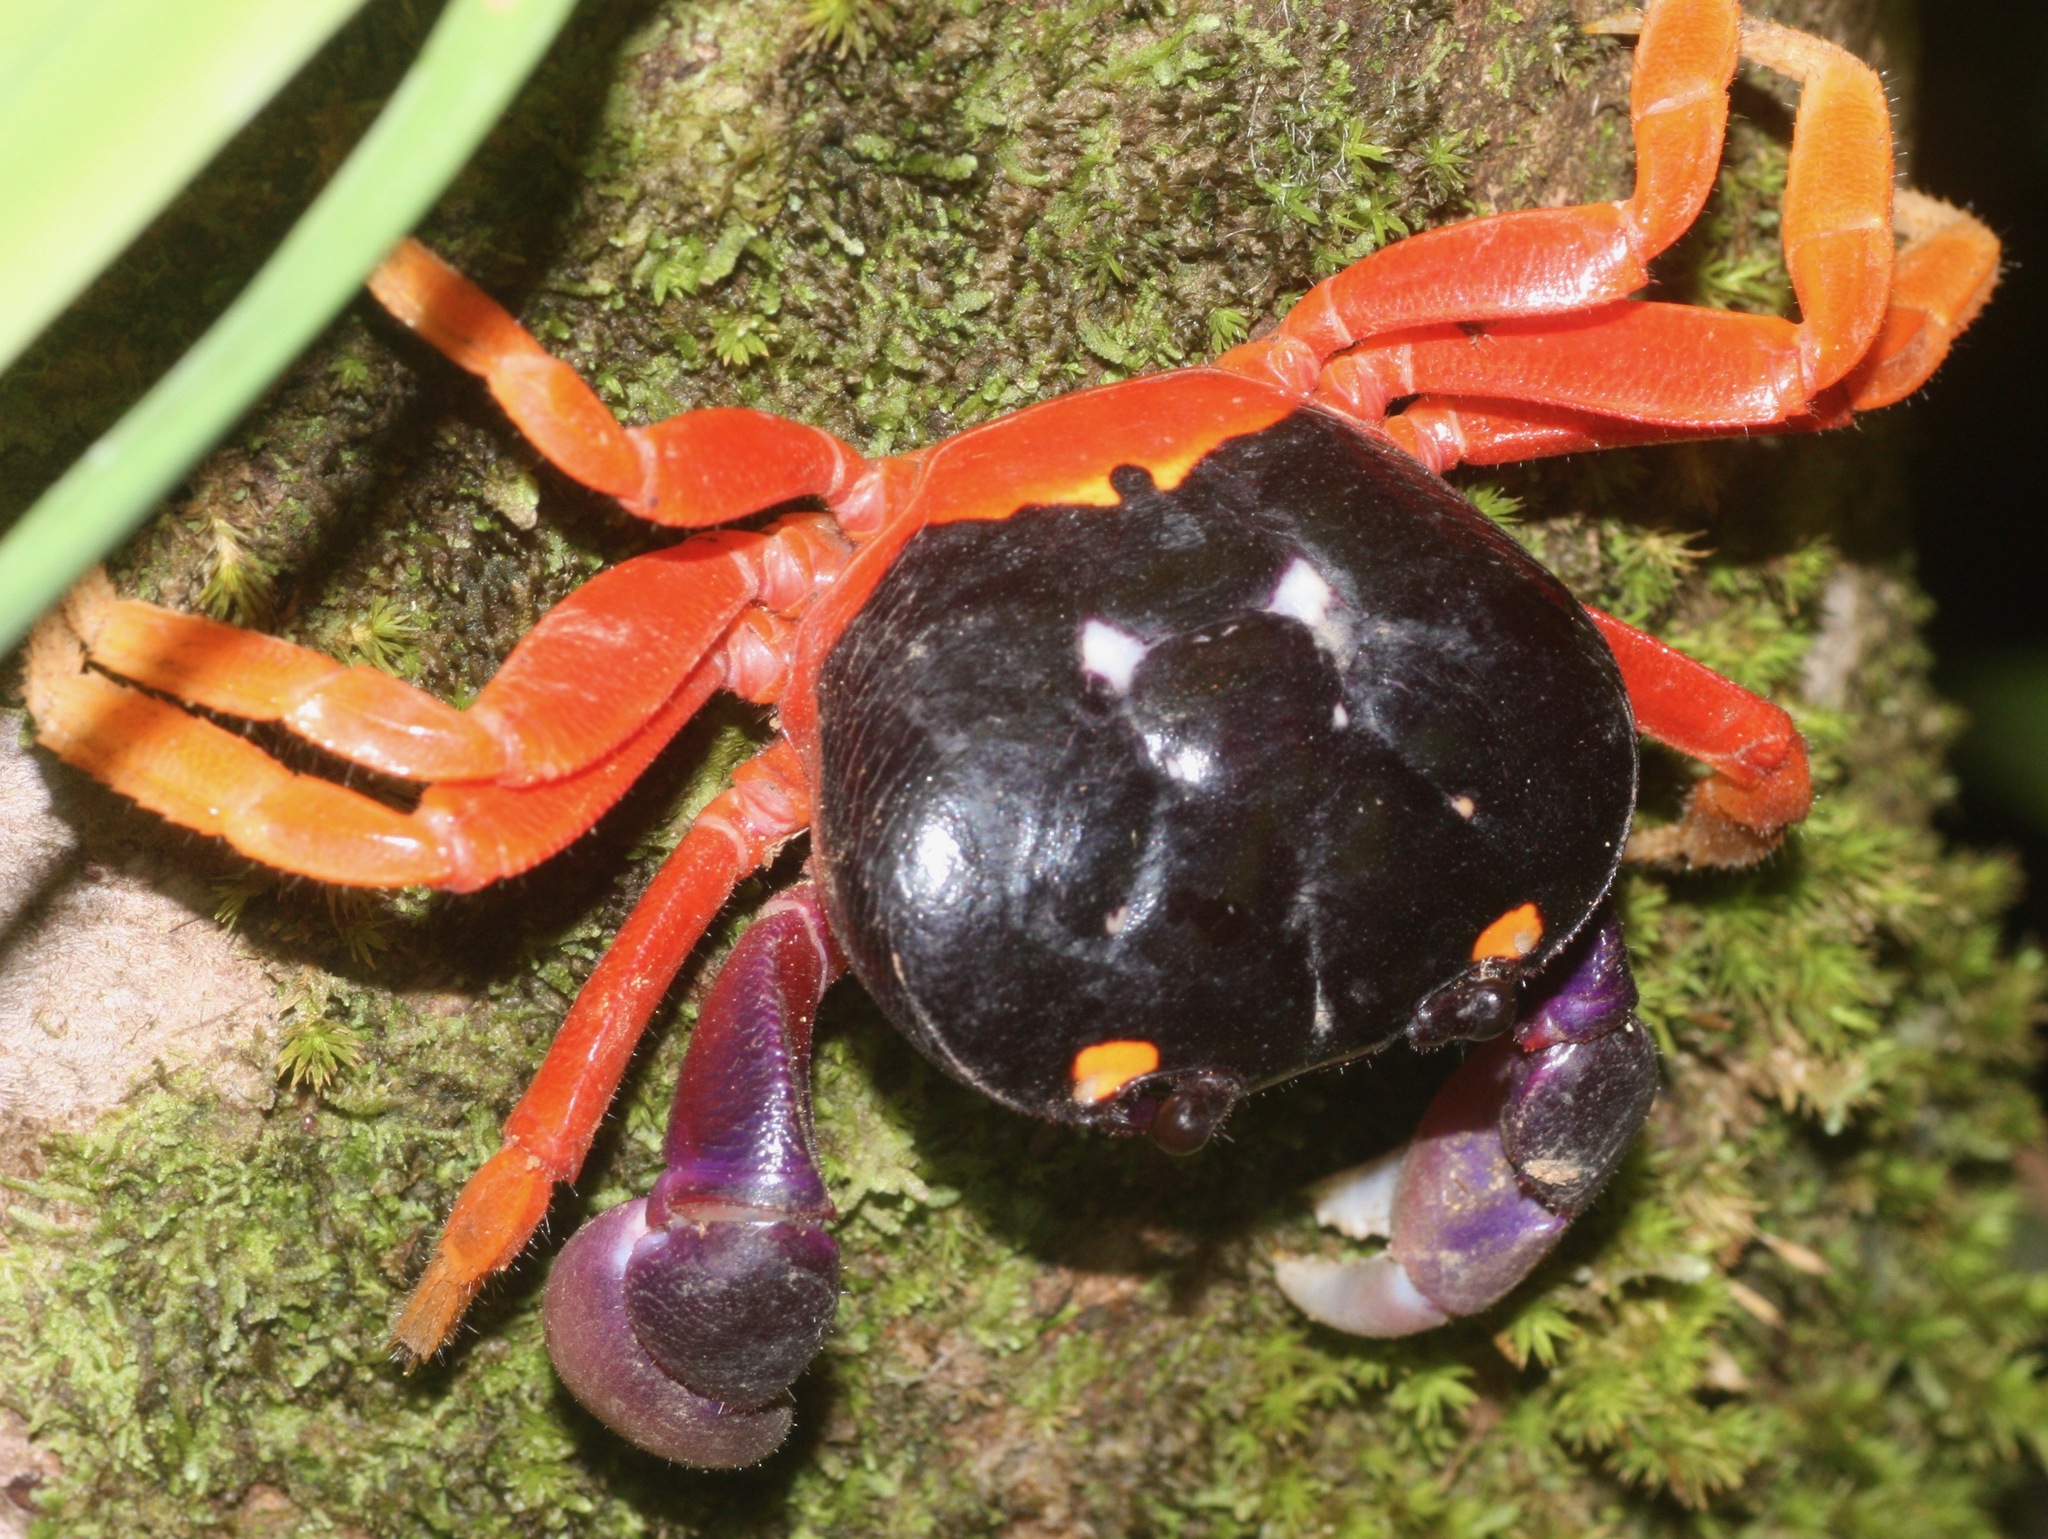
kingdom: Animalia
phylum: Arthropoda
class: Malacostraca
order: Decapoda
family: Gecarcinidae
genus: Gecarcinus
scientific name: Gecarcinus quadratus
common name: Halloween crab
